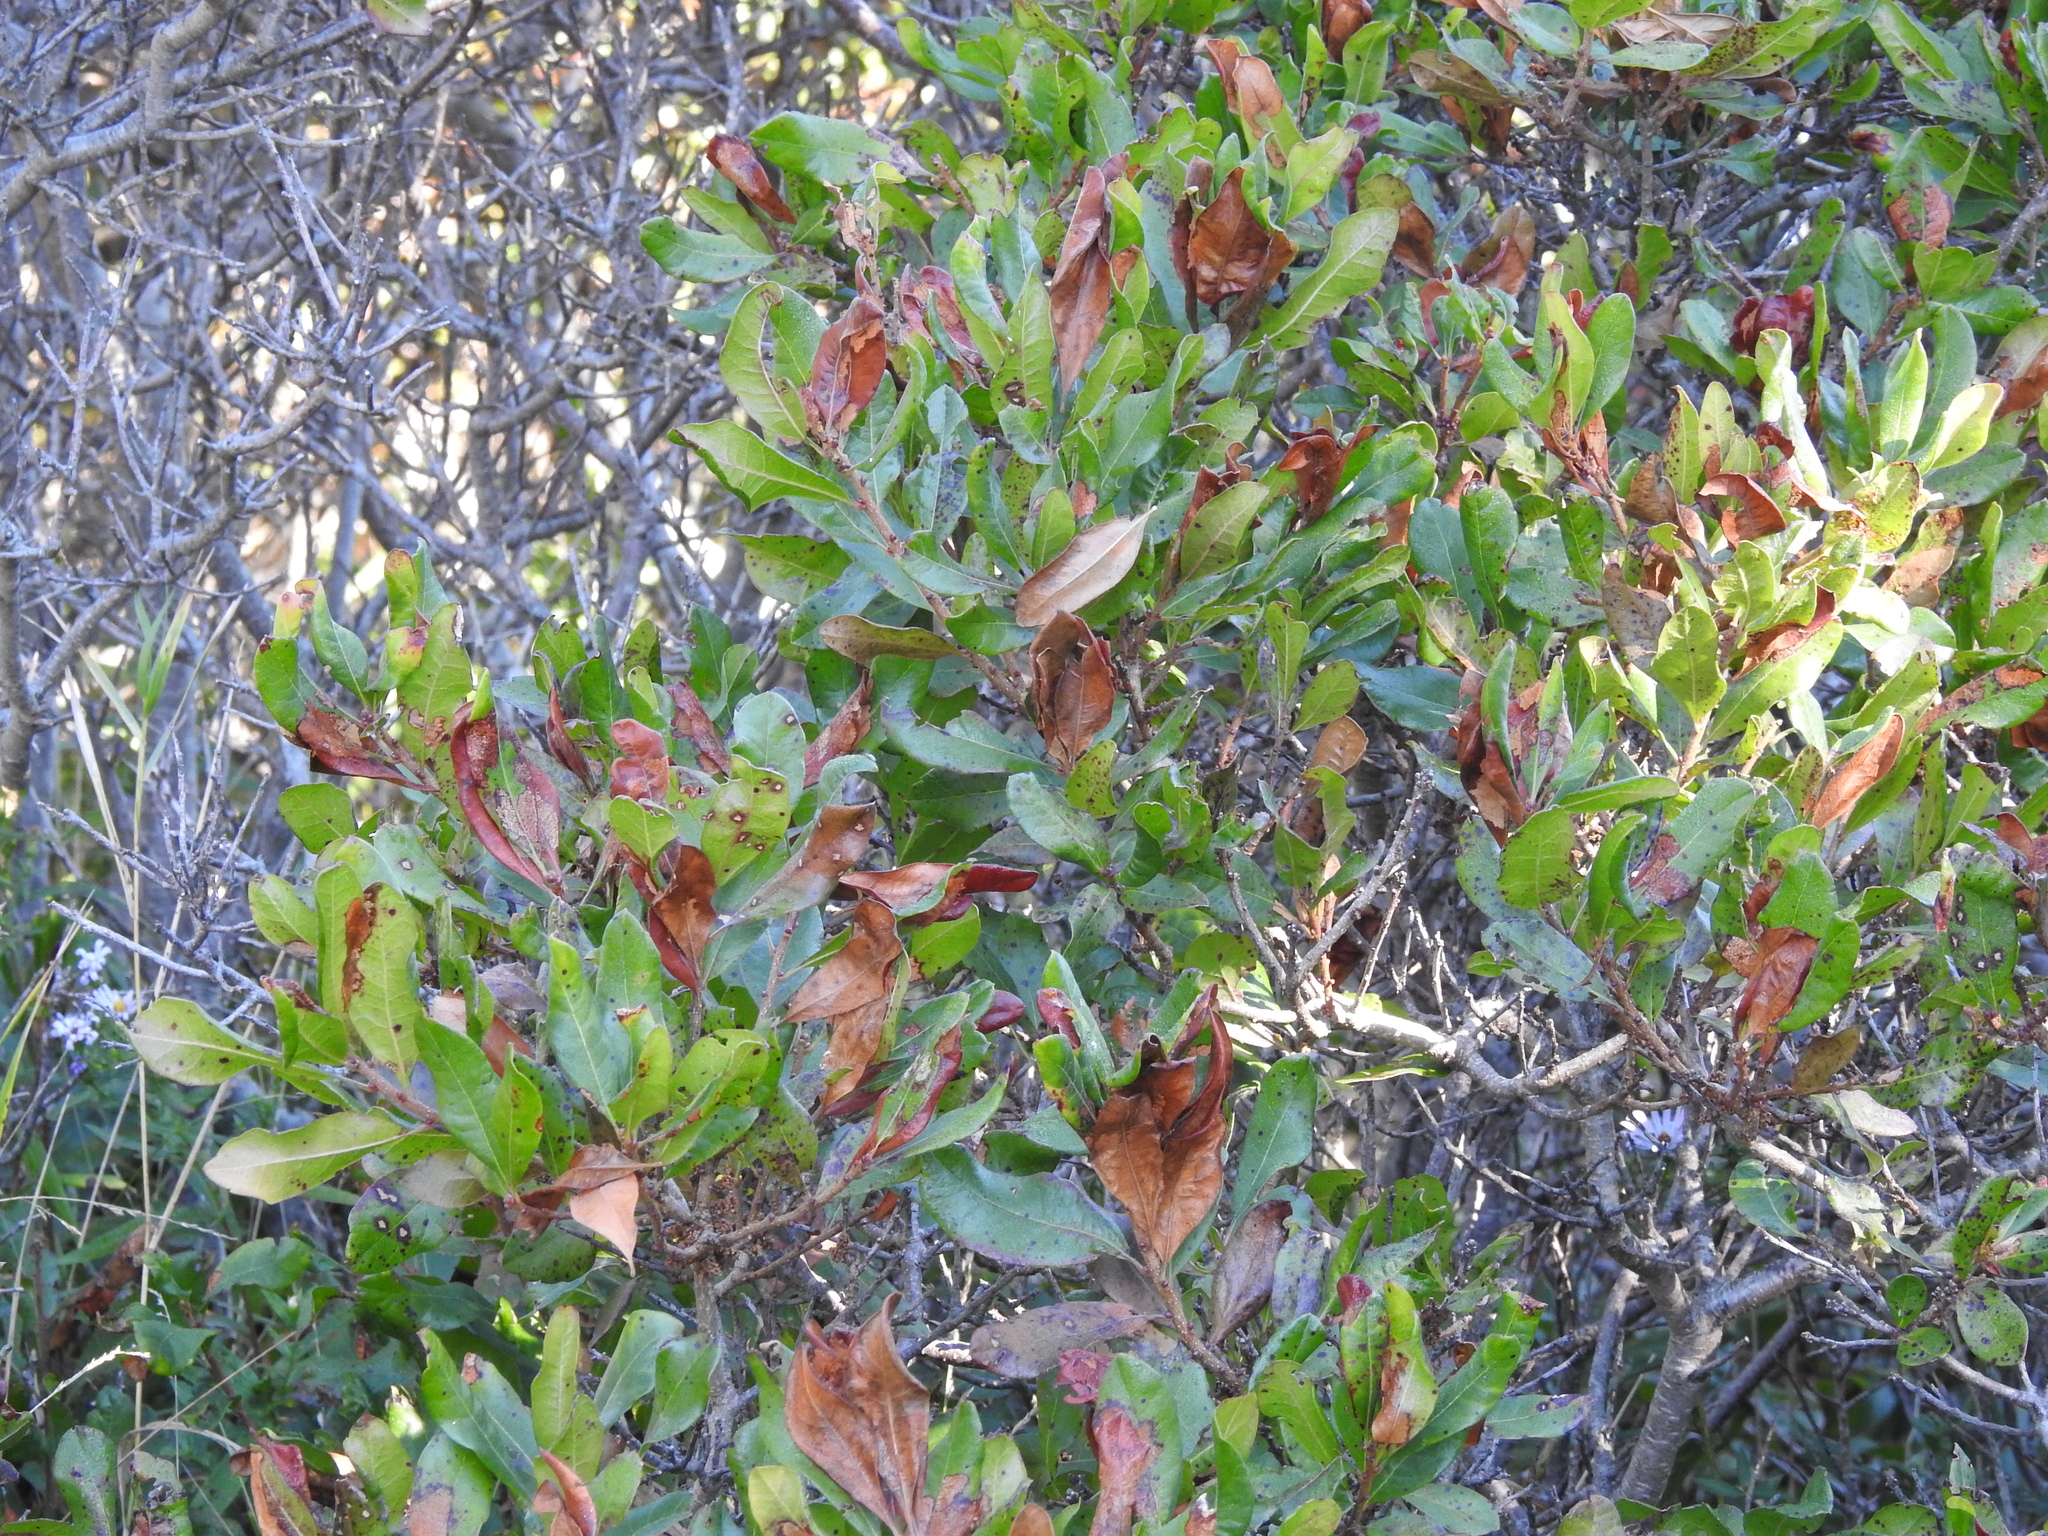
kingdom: Plantae
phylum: Tracheophyta
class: Magnoliopsida
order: Fagales
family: Myricaceae
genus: Morella
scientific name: Morella pensylvanica
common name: Northern bayberry
